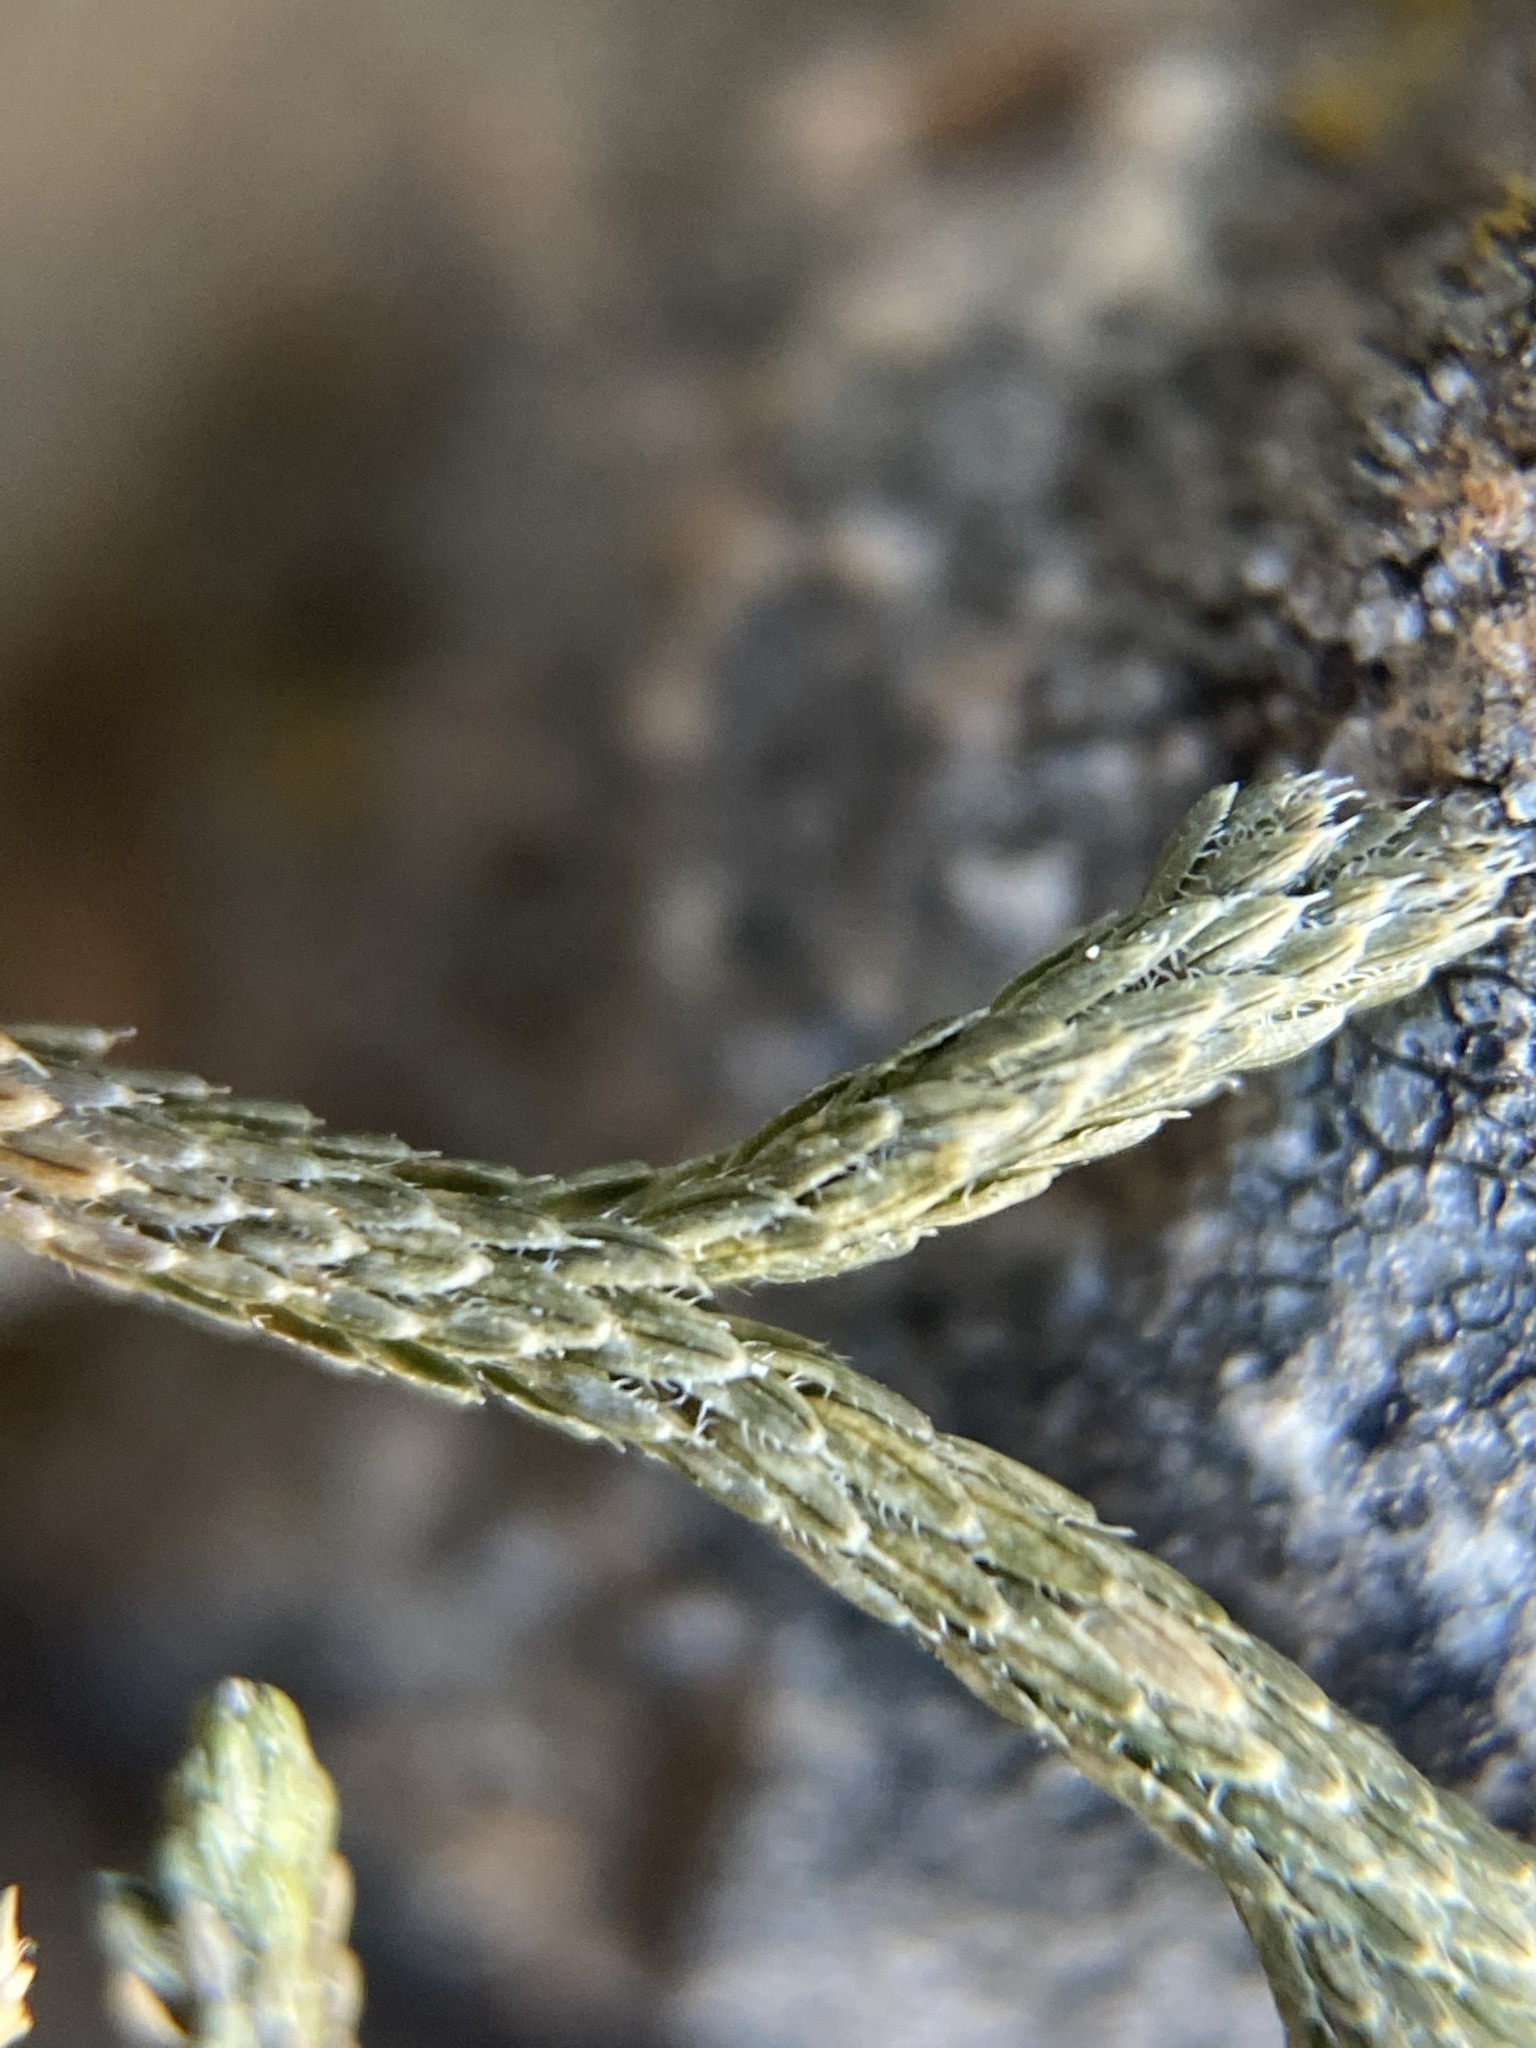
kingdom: Plantae
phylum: Tracheophyta
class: Lycopodiopsida
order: Selaginellales
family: Selaginellaceae
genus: Selaginella
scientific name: Selaginella mutica
